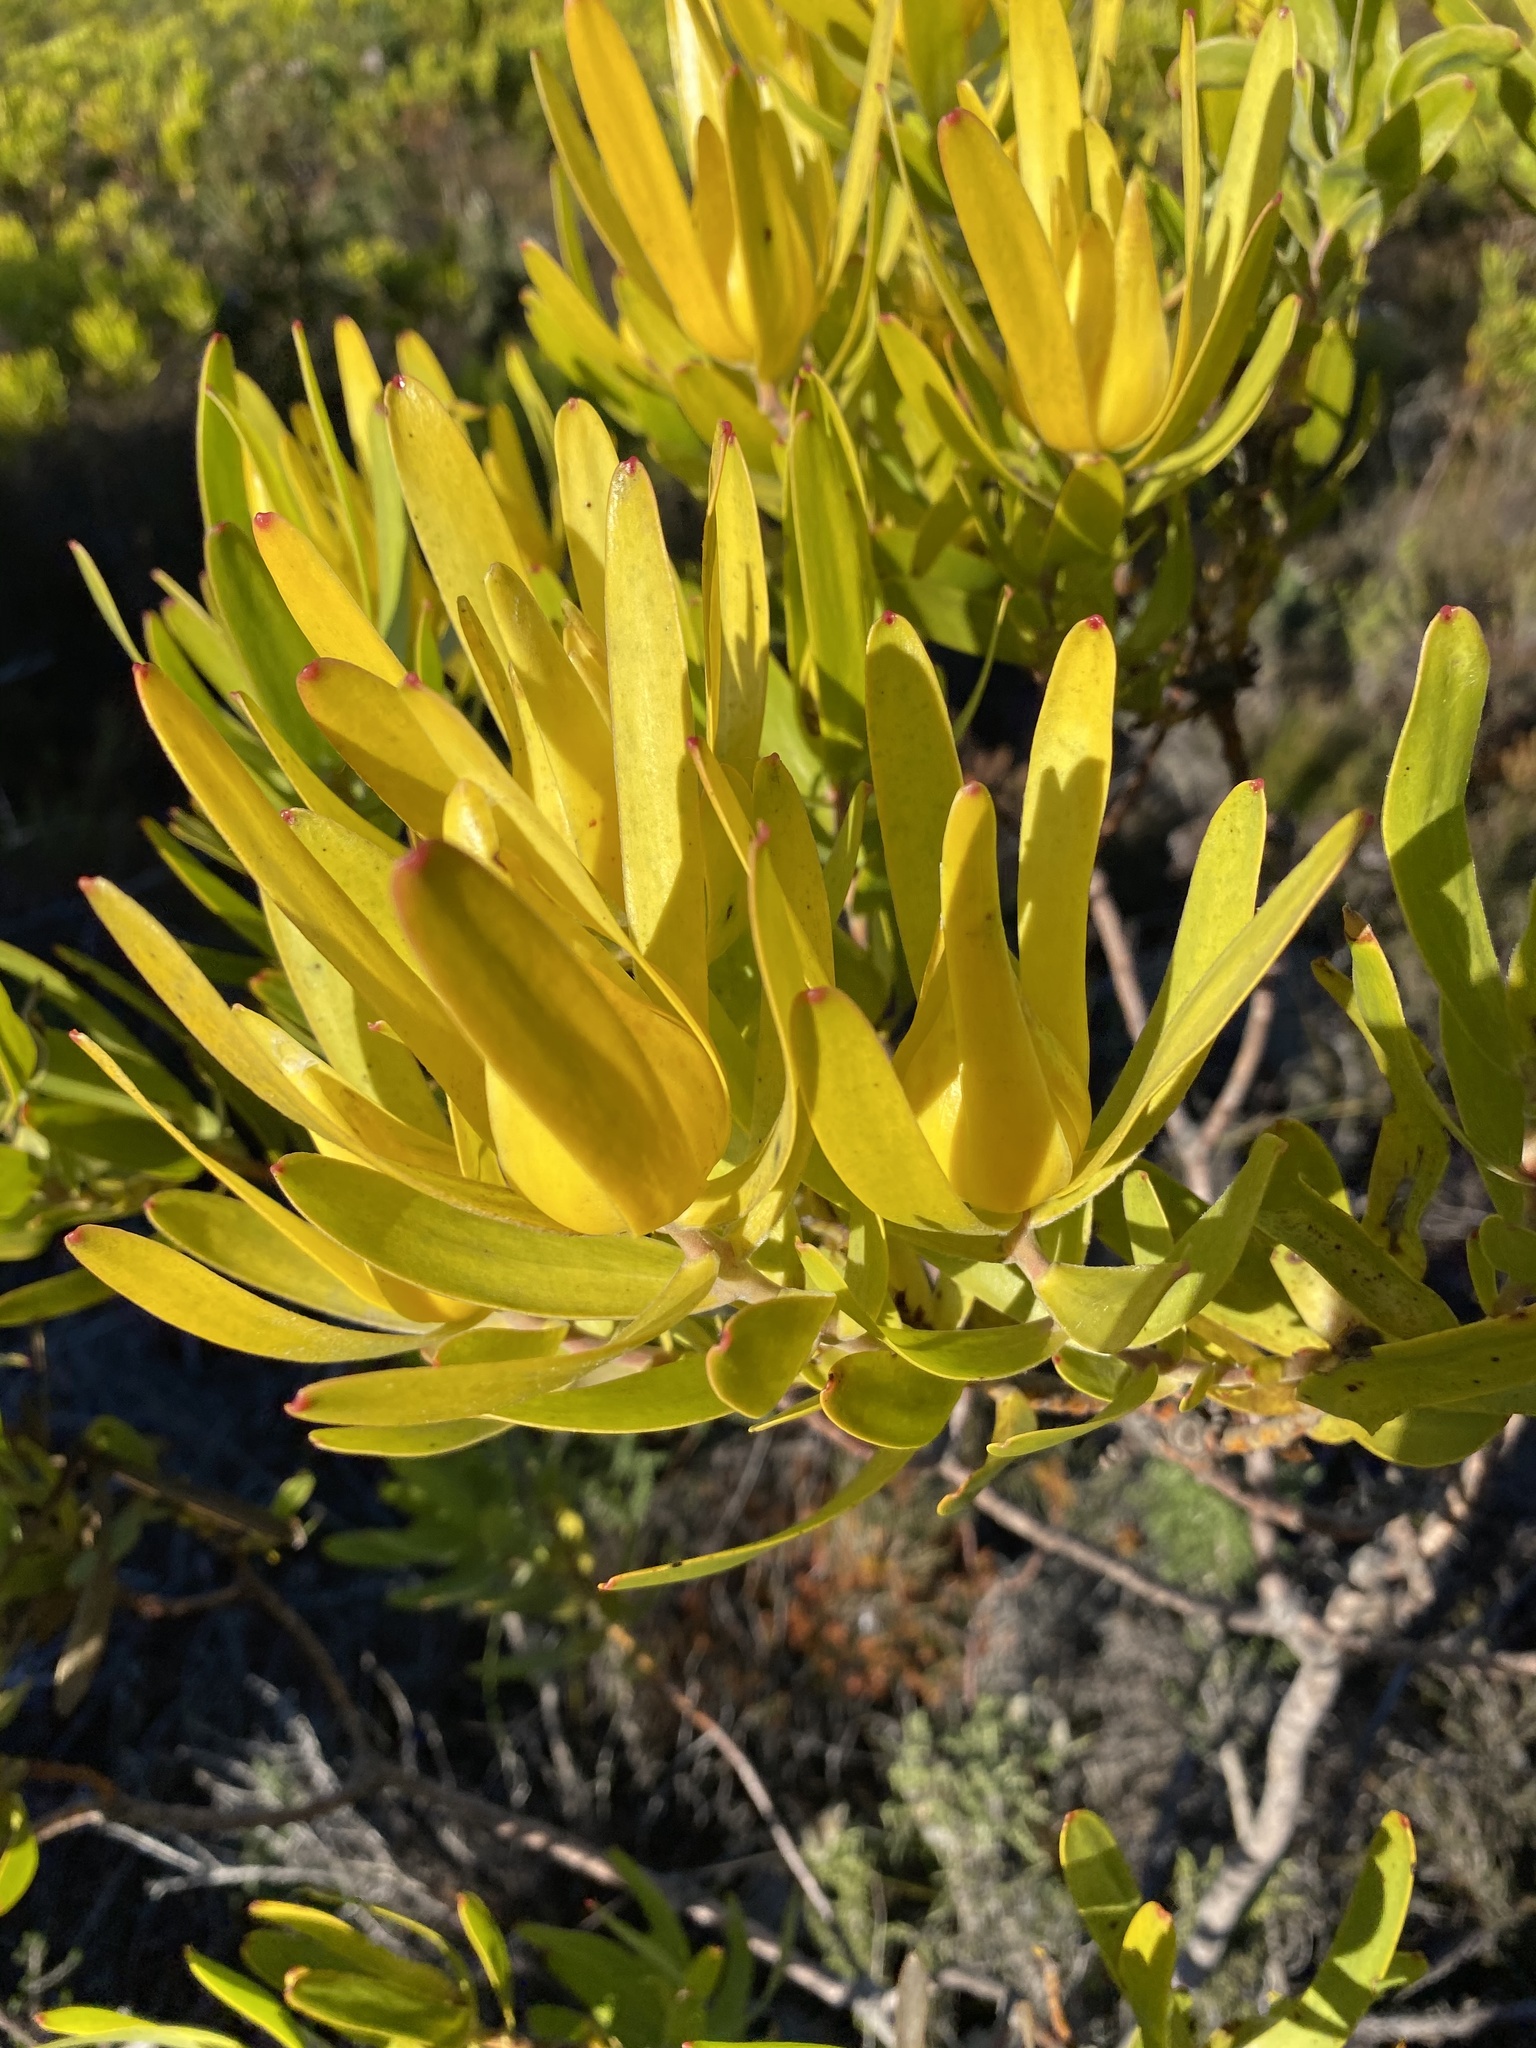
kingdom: Plantae
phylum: Tracheophyta
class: Magnoliopsida
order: Proteales
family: Proteaceae
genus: Leucadendron
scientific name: Leucadendron laureolum
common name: Golden sunshinebush
